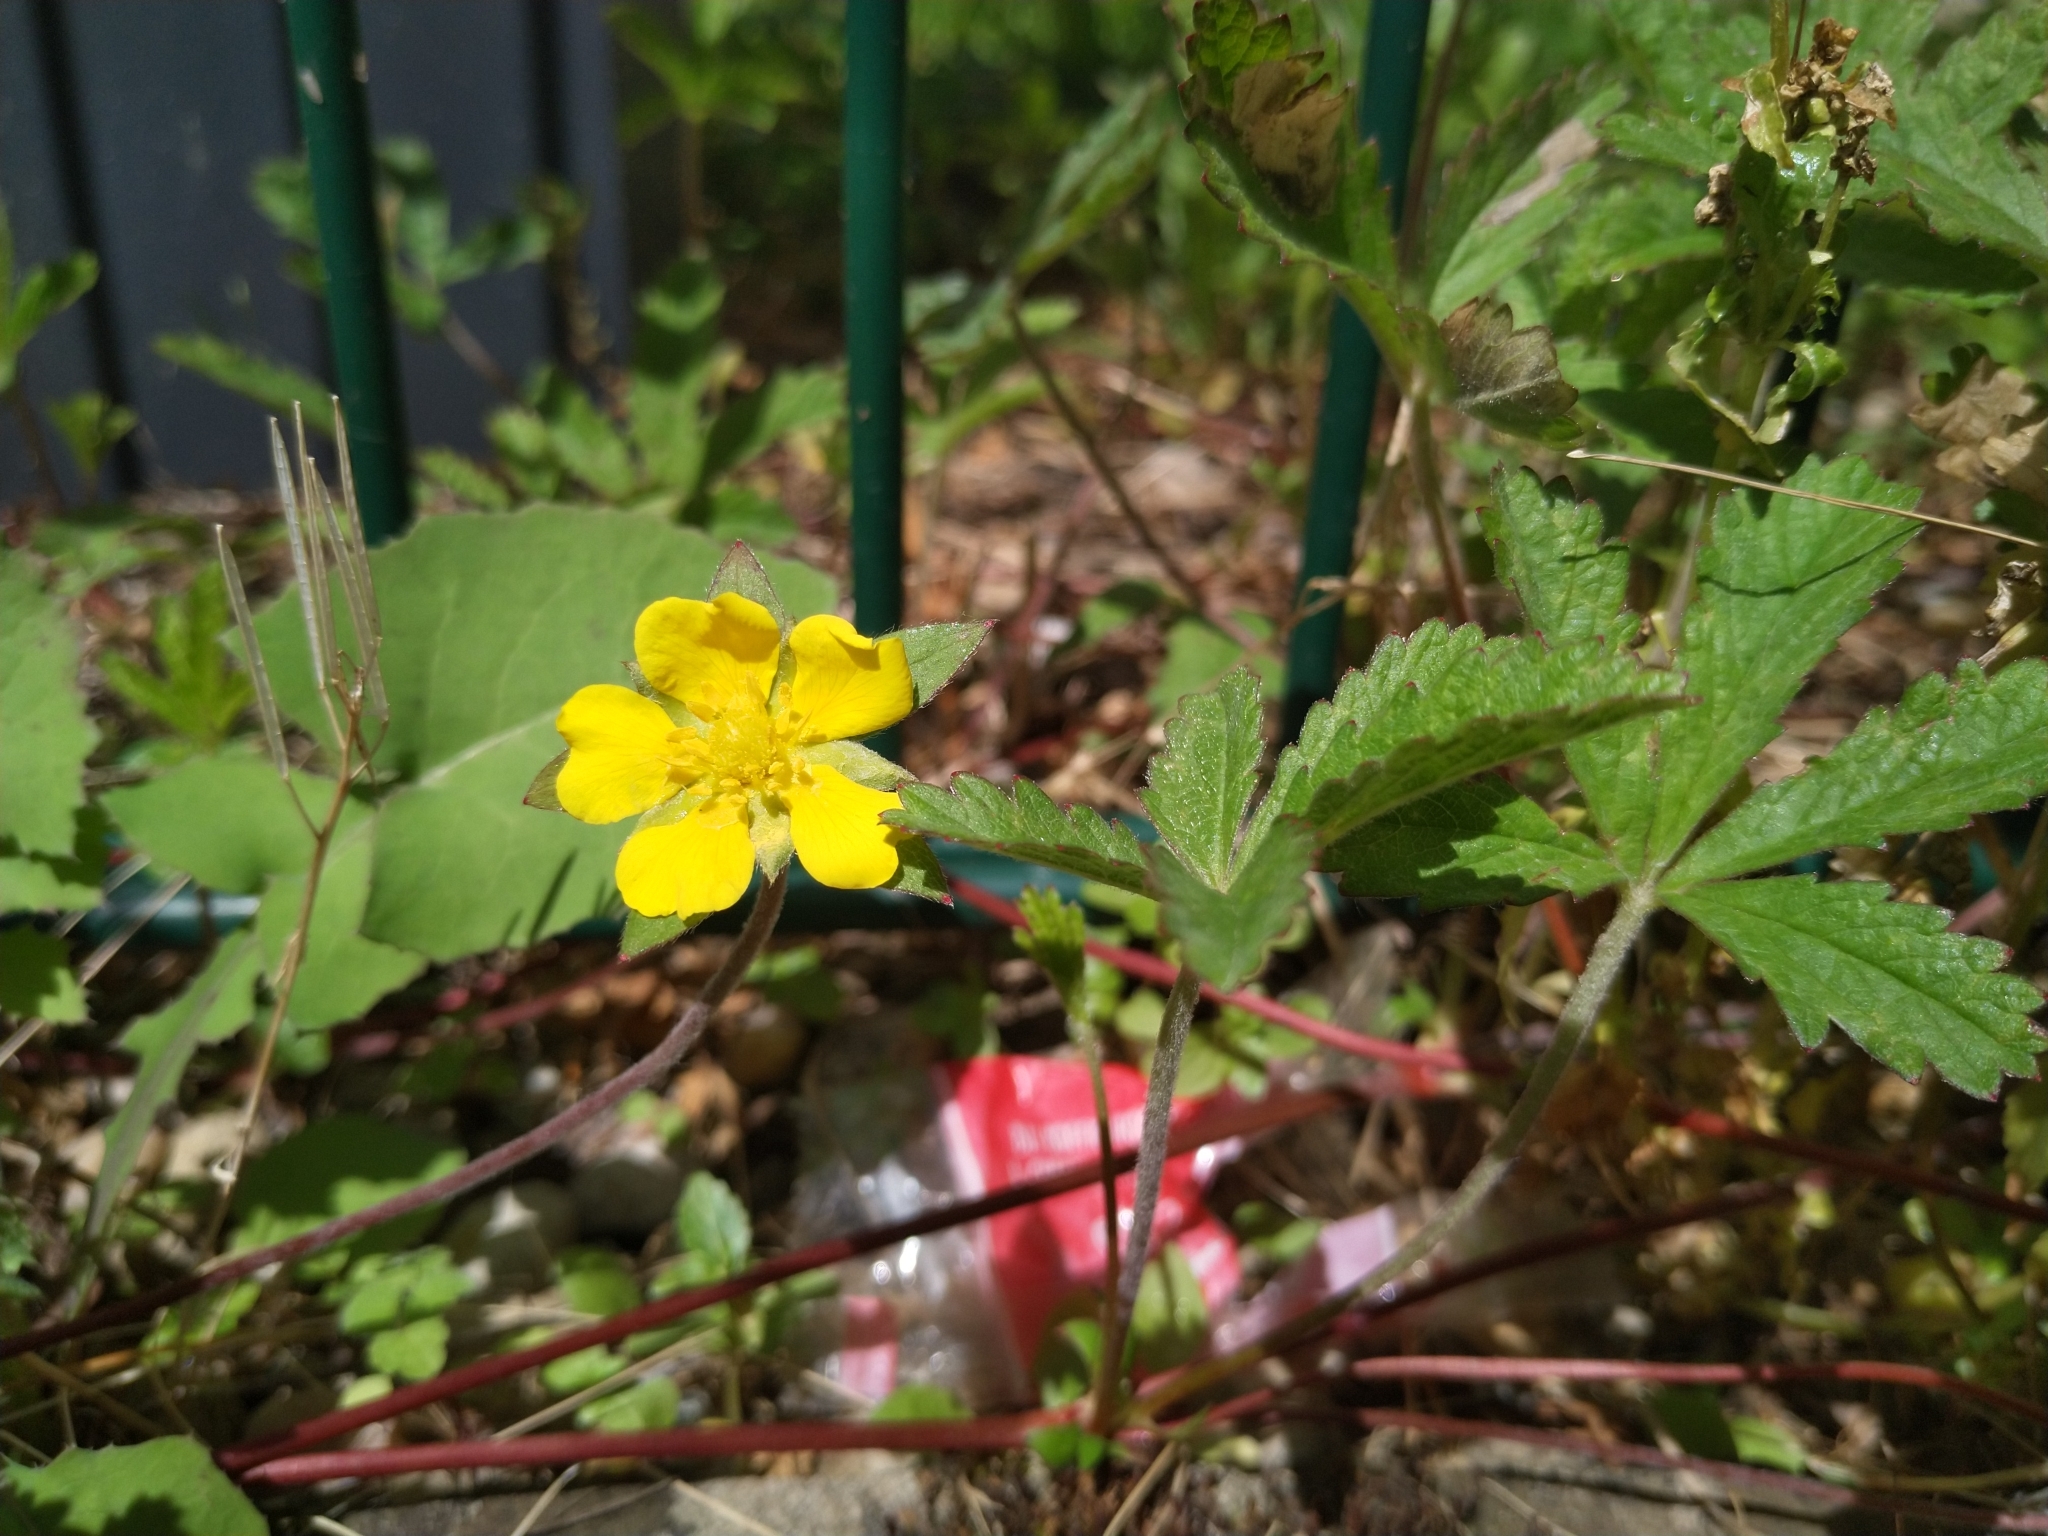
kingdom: Plantae
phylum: Tracheophyta
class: Magnoliopsida
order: Rosales
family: Rosaceae
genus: Potentilla
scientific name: Potentilla reptans
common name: Creeping cinquefoil
